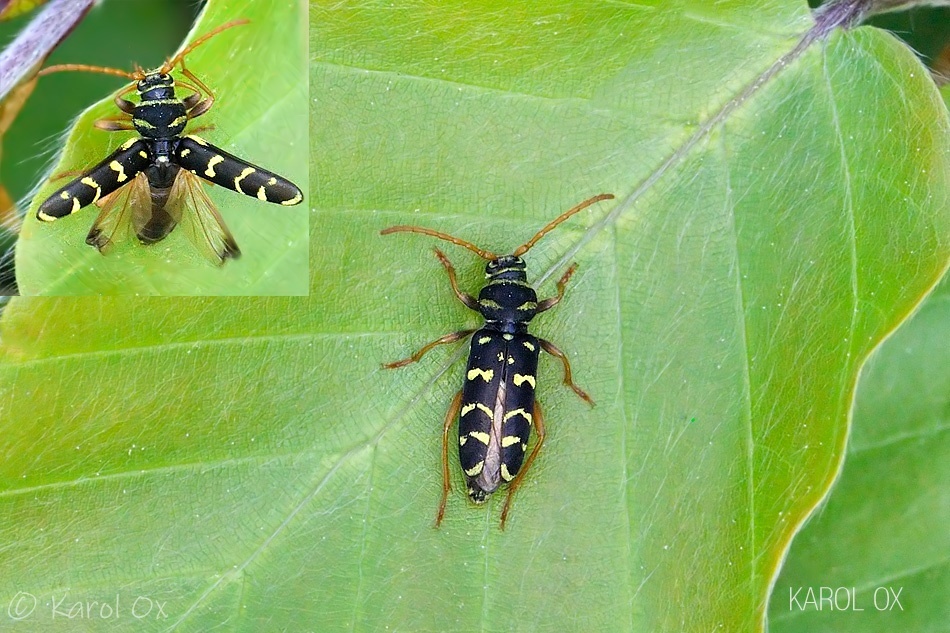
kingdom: Animalia
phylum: Arthropoda
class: Insecta
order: Coleoptera
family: Cerambycidae
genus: Plagionotus
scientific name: Plagionotus arcuatus
